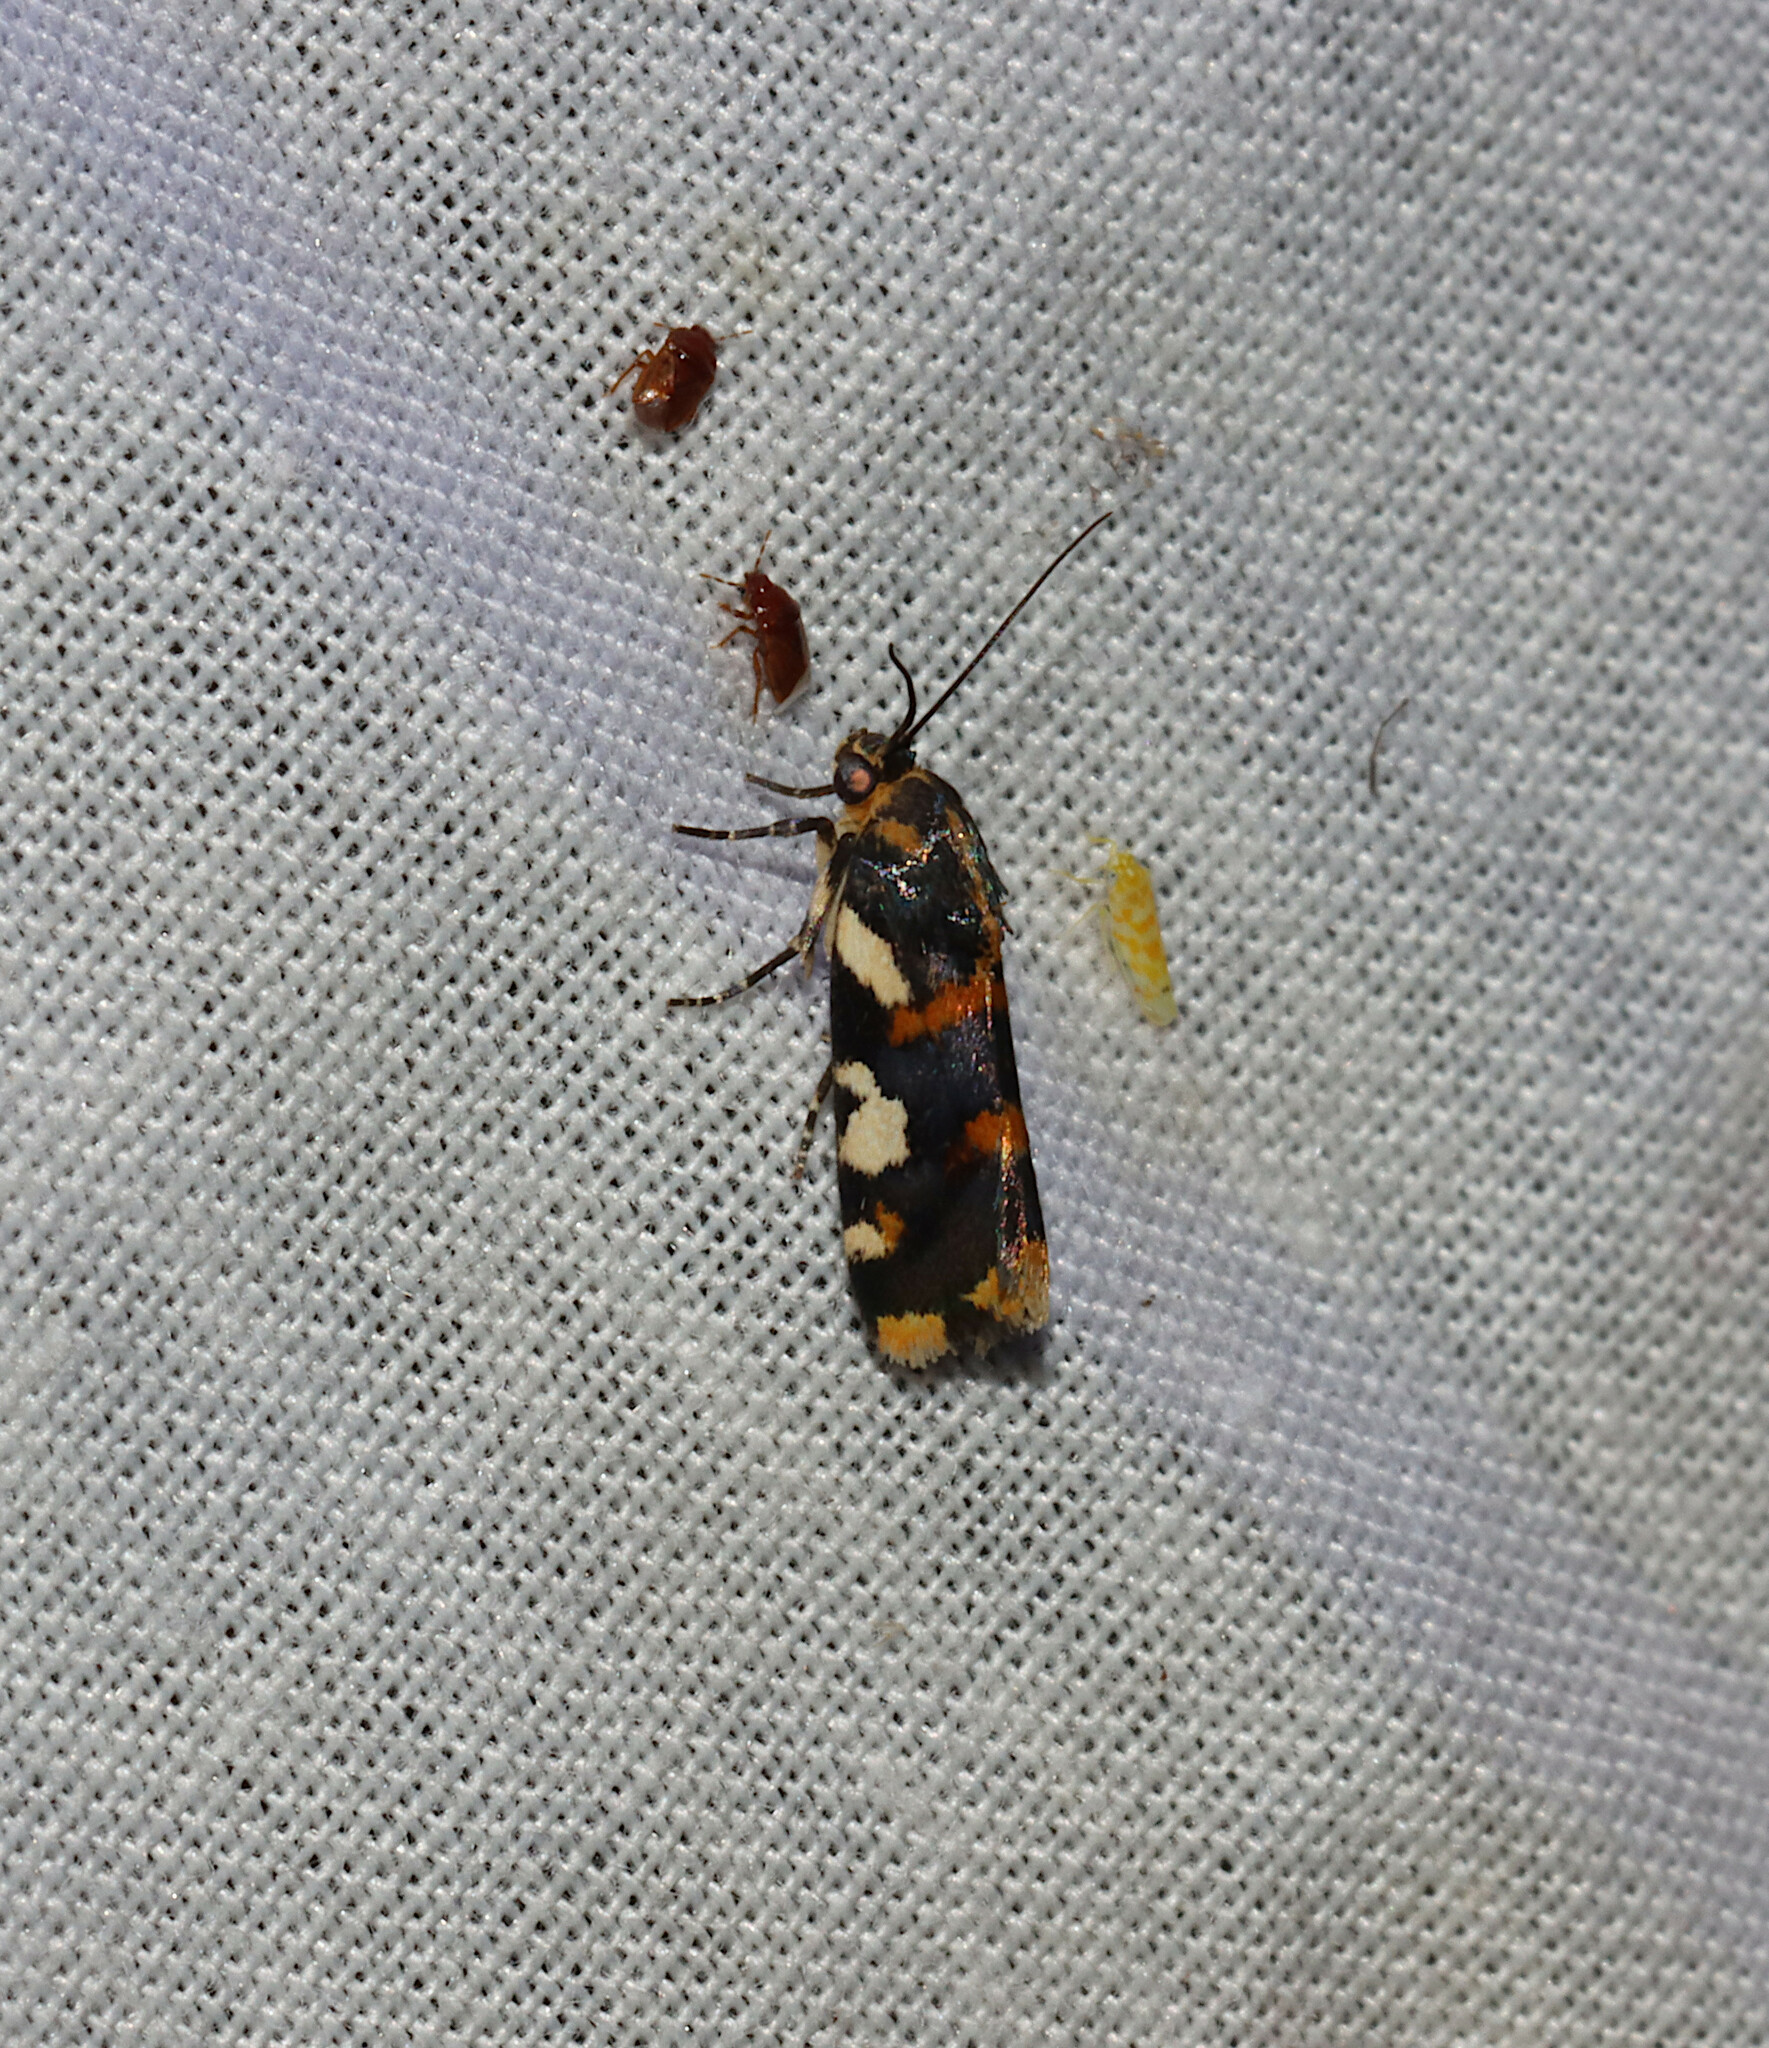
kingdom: Animalia
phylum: Arthropoda
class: Insecta
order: Lepidoptera
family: Noctuidae
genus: Acontia
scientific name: Acontia dama
